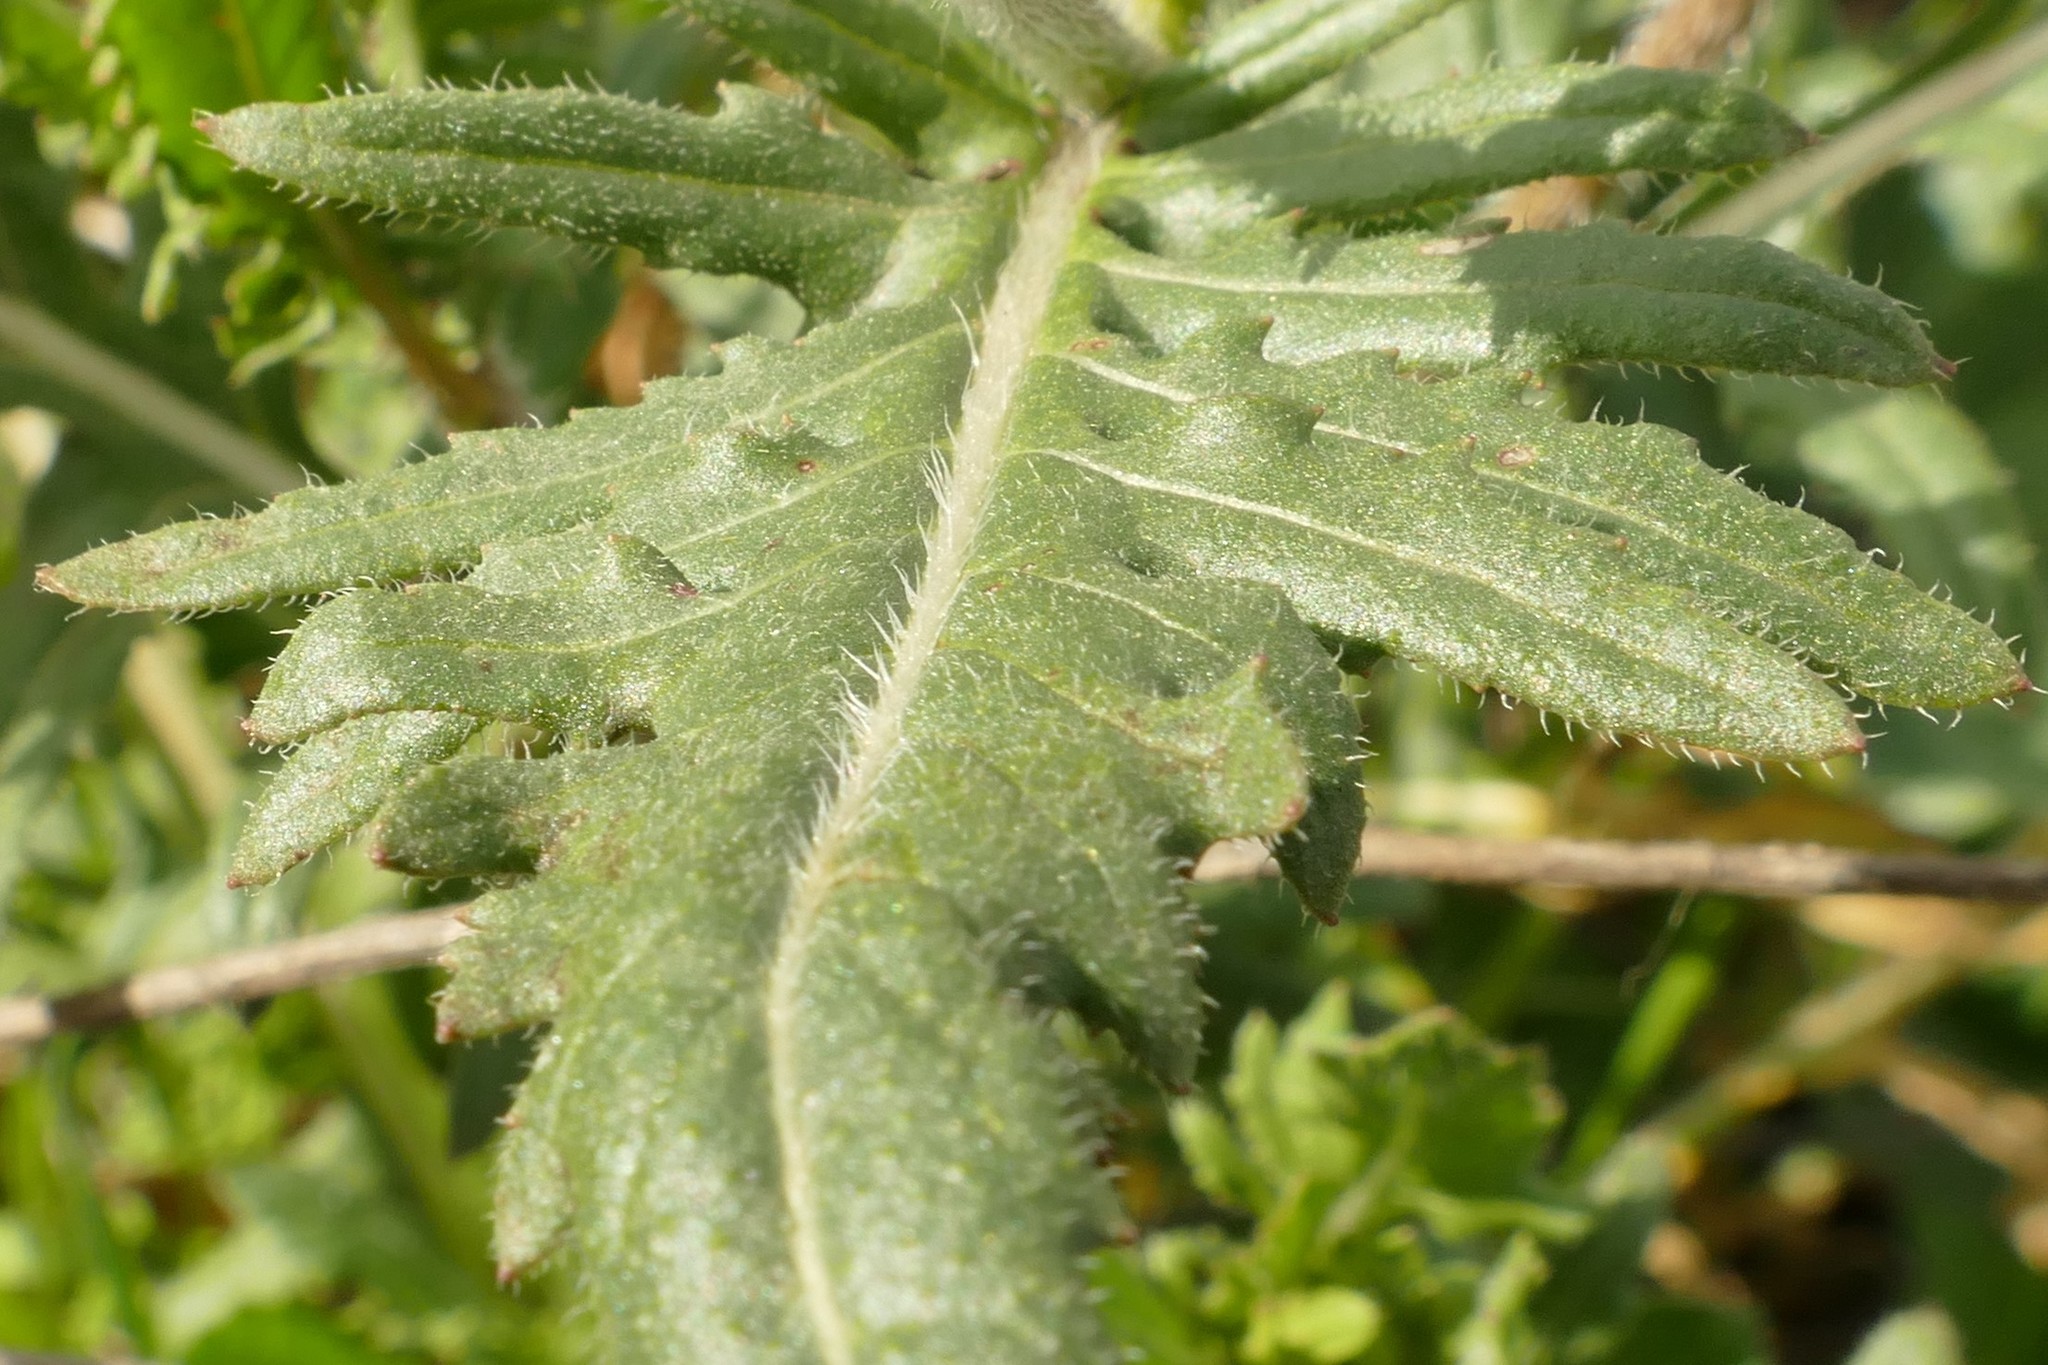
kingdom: Plantae
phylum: Tracheophyta
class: Magnoliopsida
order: Brassicales
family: Brassicaceae
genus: Eruca
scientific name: Eruca vesicaria
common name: Garden rocket
